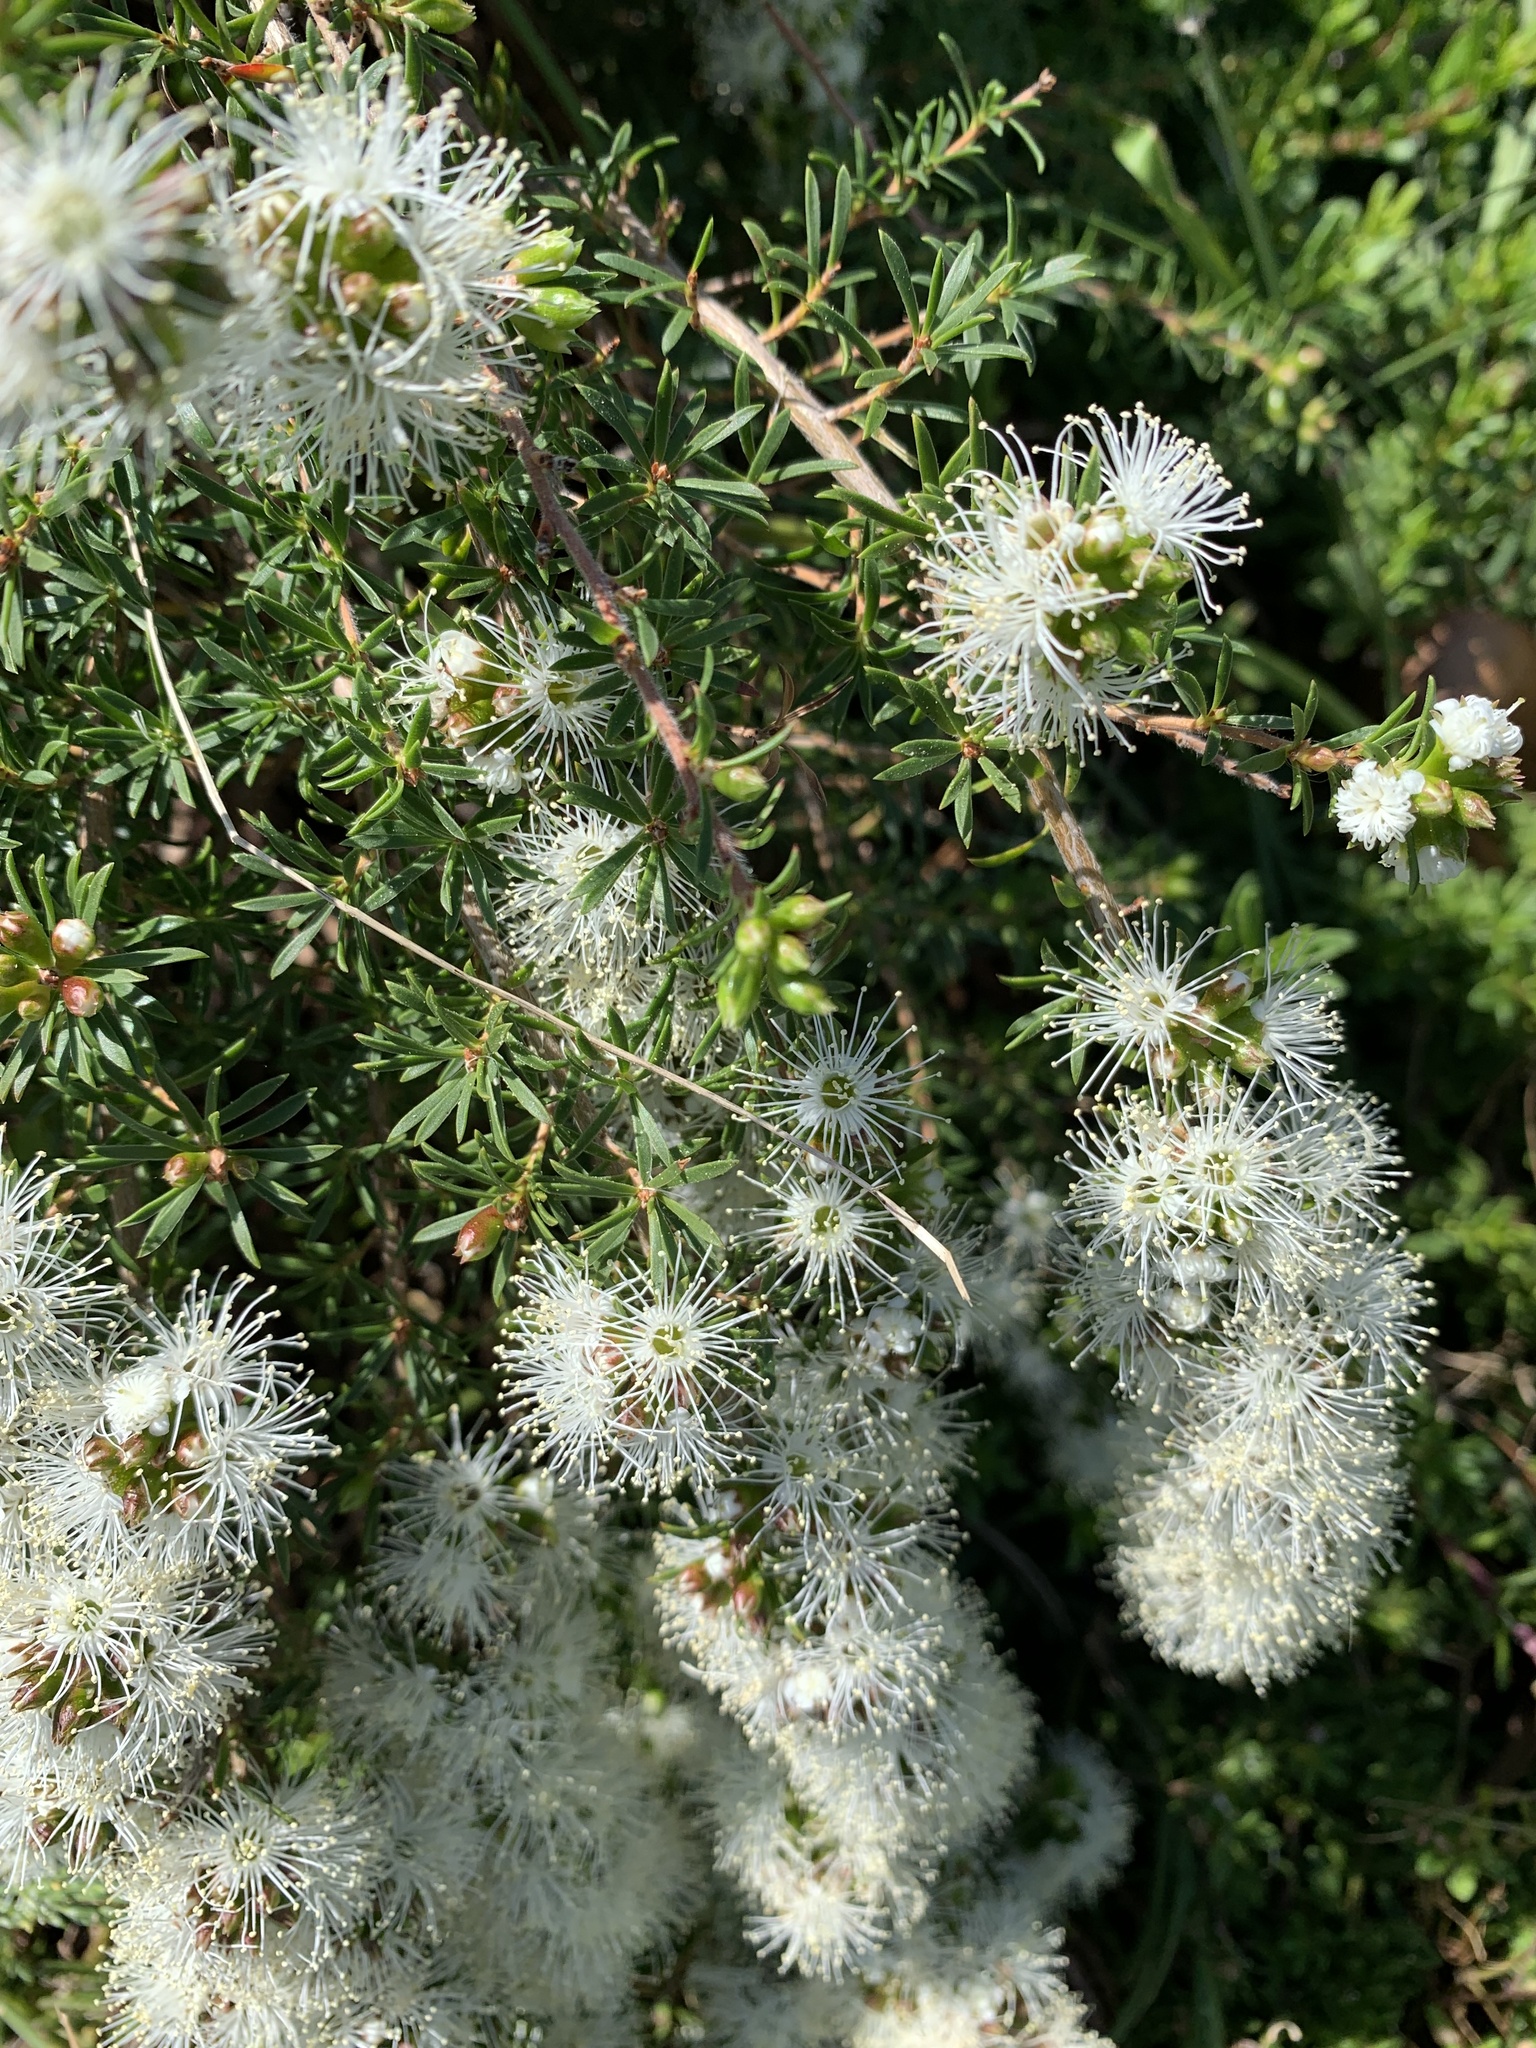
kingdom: Plantae
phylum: Tracheophyta
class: Magnoliopsida
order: Myrtales
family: Myrtaceae
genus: Kunzea
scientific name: Kunzea ambigua
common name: Tickbush
